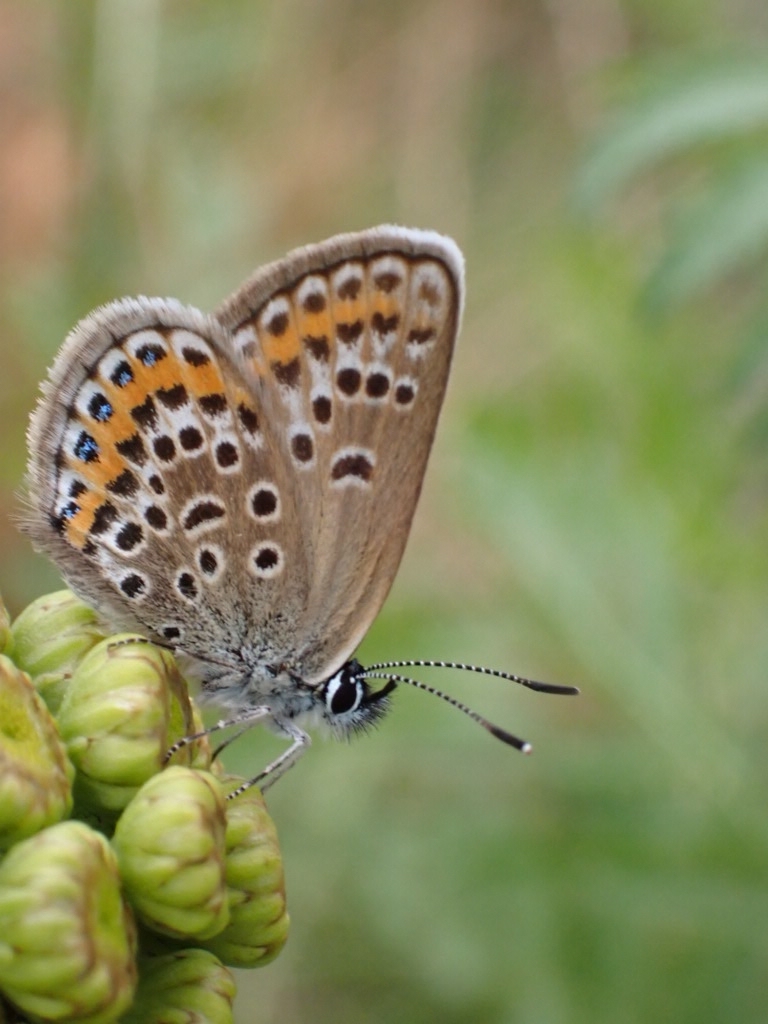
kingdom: Animalia
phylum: Arthropoda
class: Insecta
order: Lepidoptera
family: Lycaenidae
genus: Plebejus
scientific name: Plebejus argus
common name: Silver-studded blue
